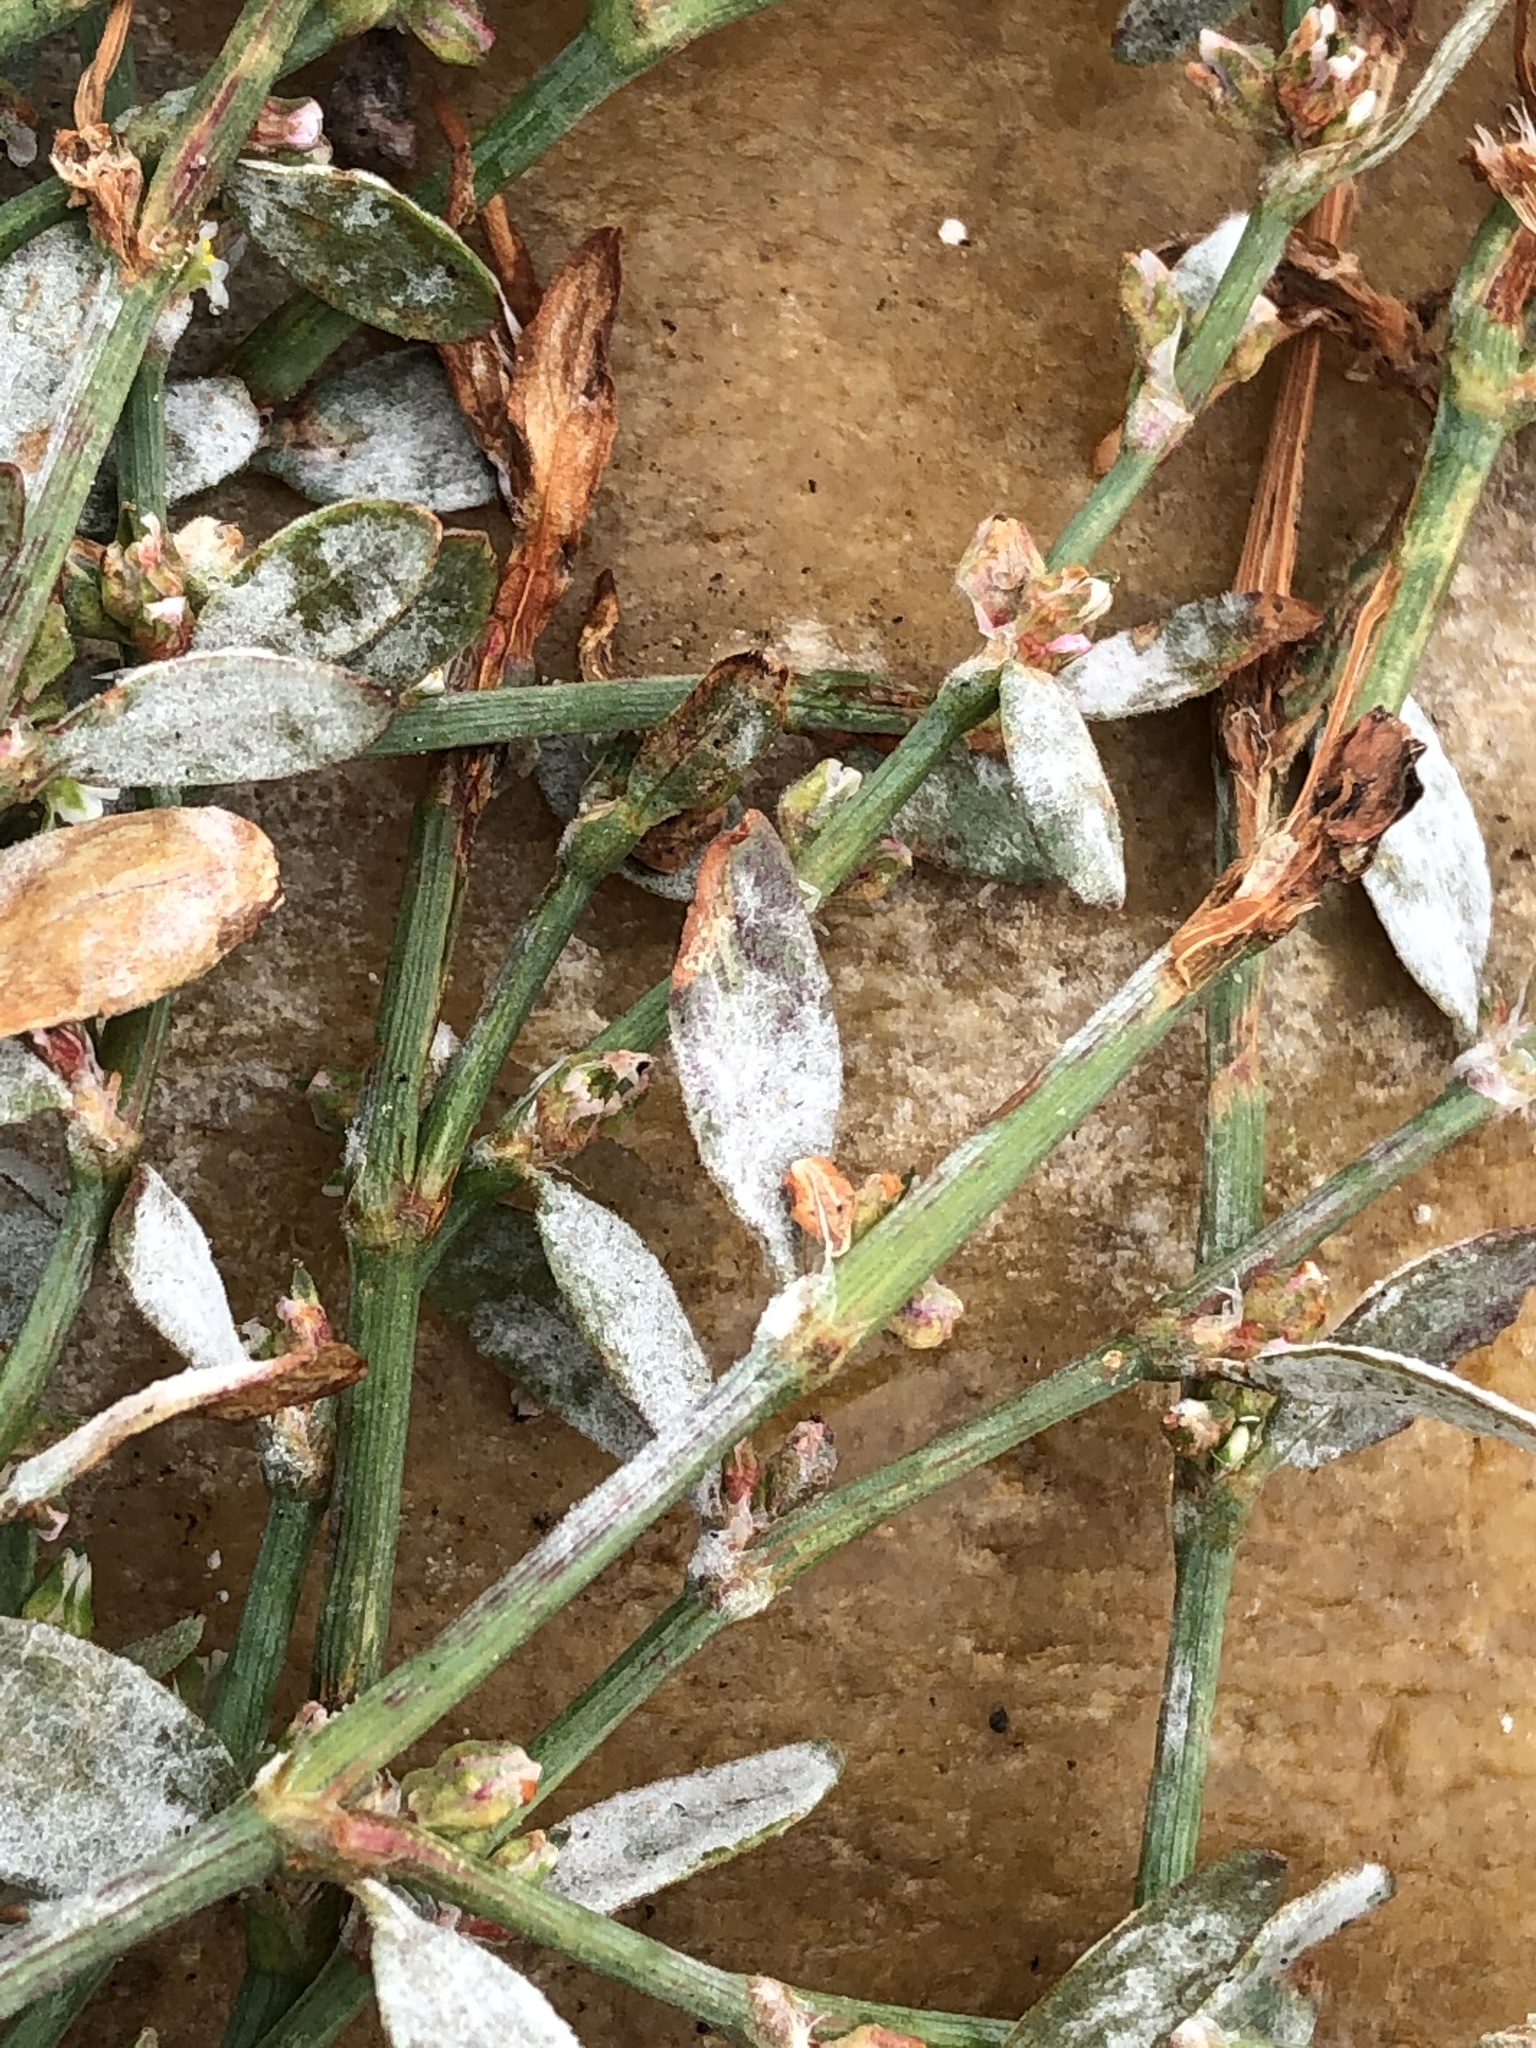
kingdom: Fungi
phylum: Ascomycota
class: Leotiomycetes
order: Helotiales
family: Erysiphaceae
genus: Erysiphe
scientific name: Erysiphe polygoni
